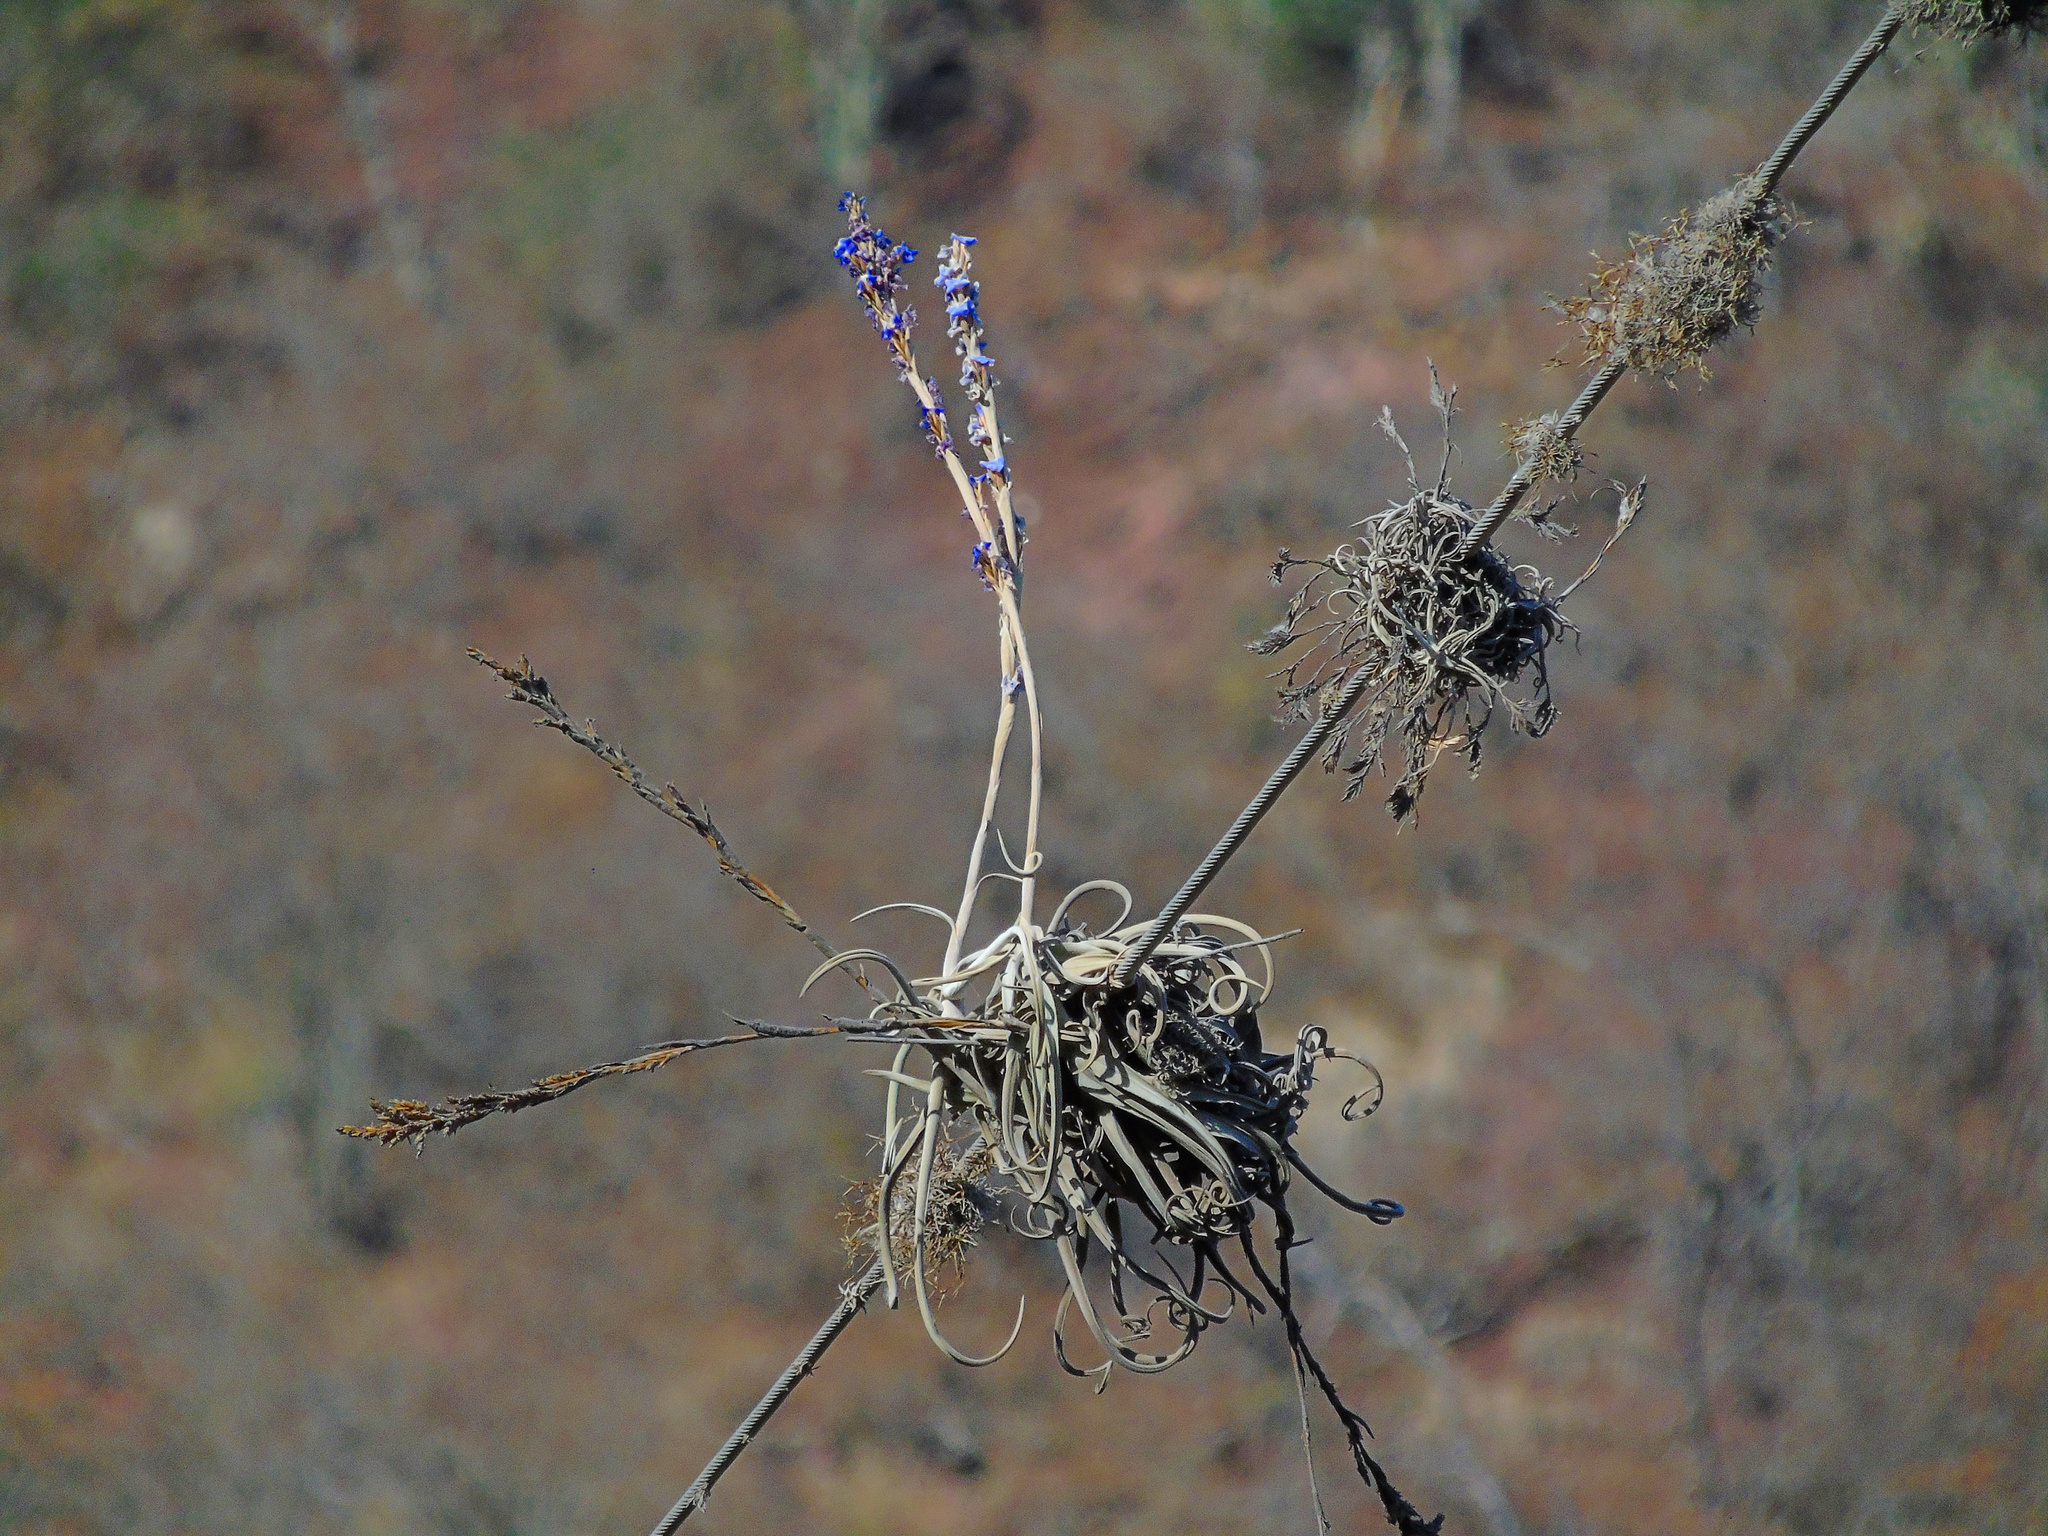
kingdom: Plantae
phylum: Tracheophyta
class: Liliopsida
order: Poales
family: Bromeliaceae
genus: Tillandsia
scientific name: Tillandsia duratii
